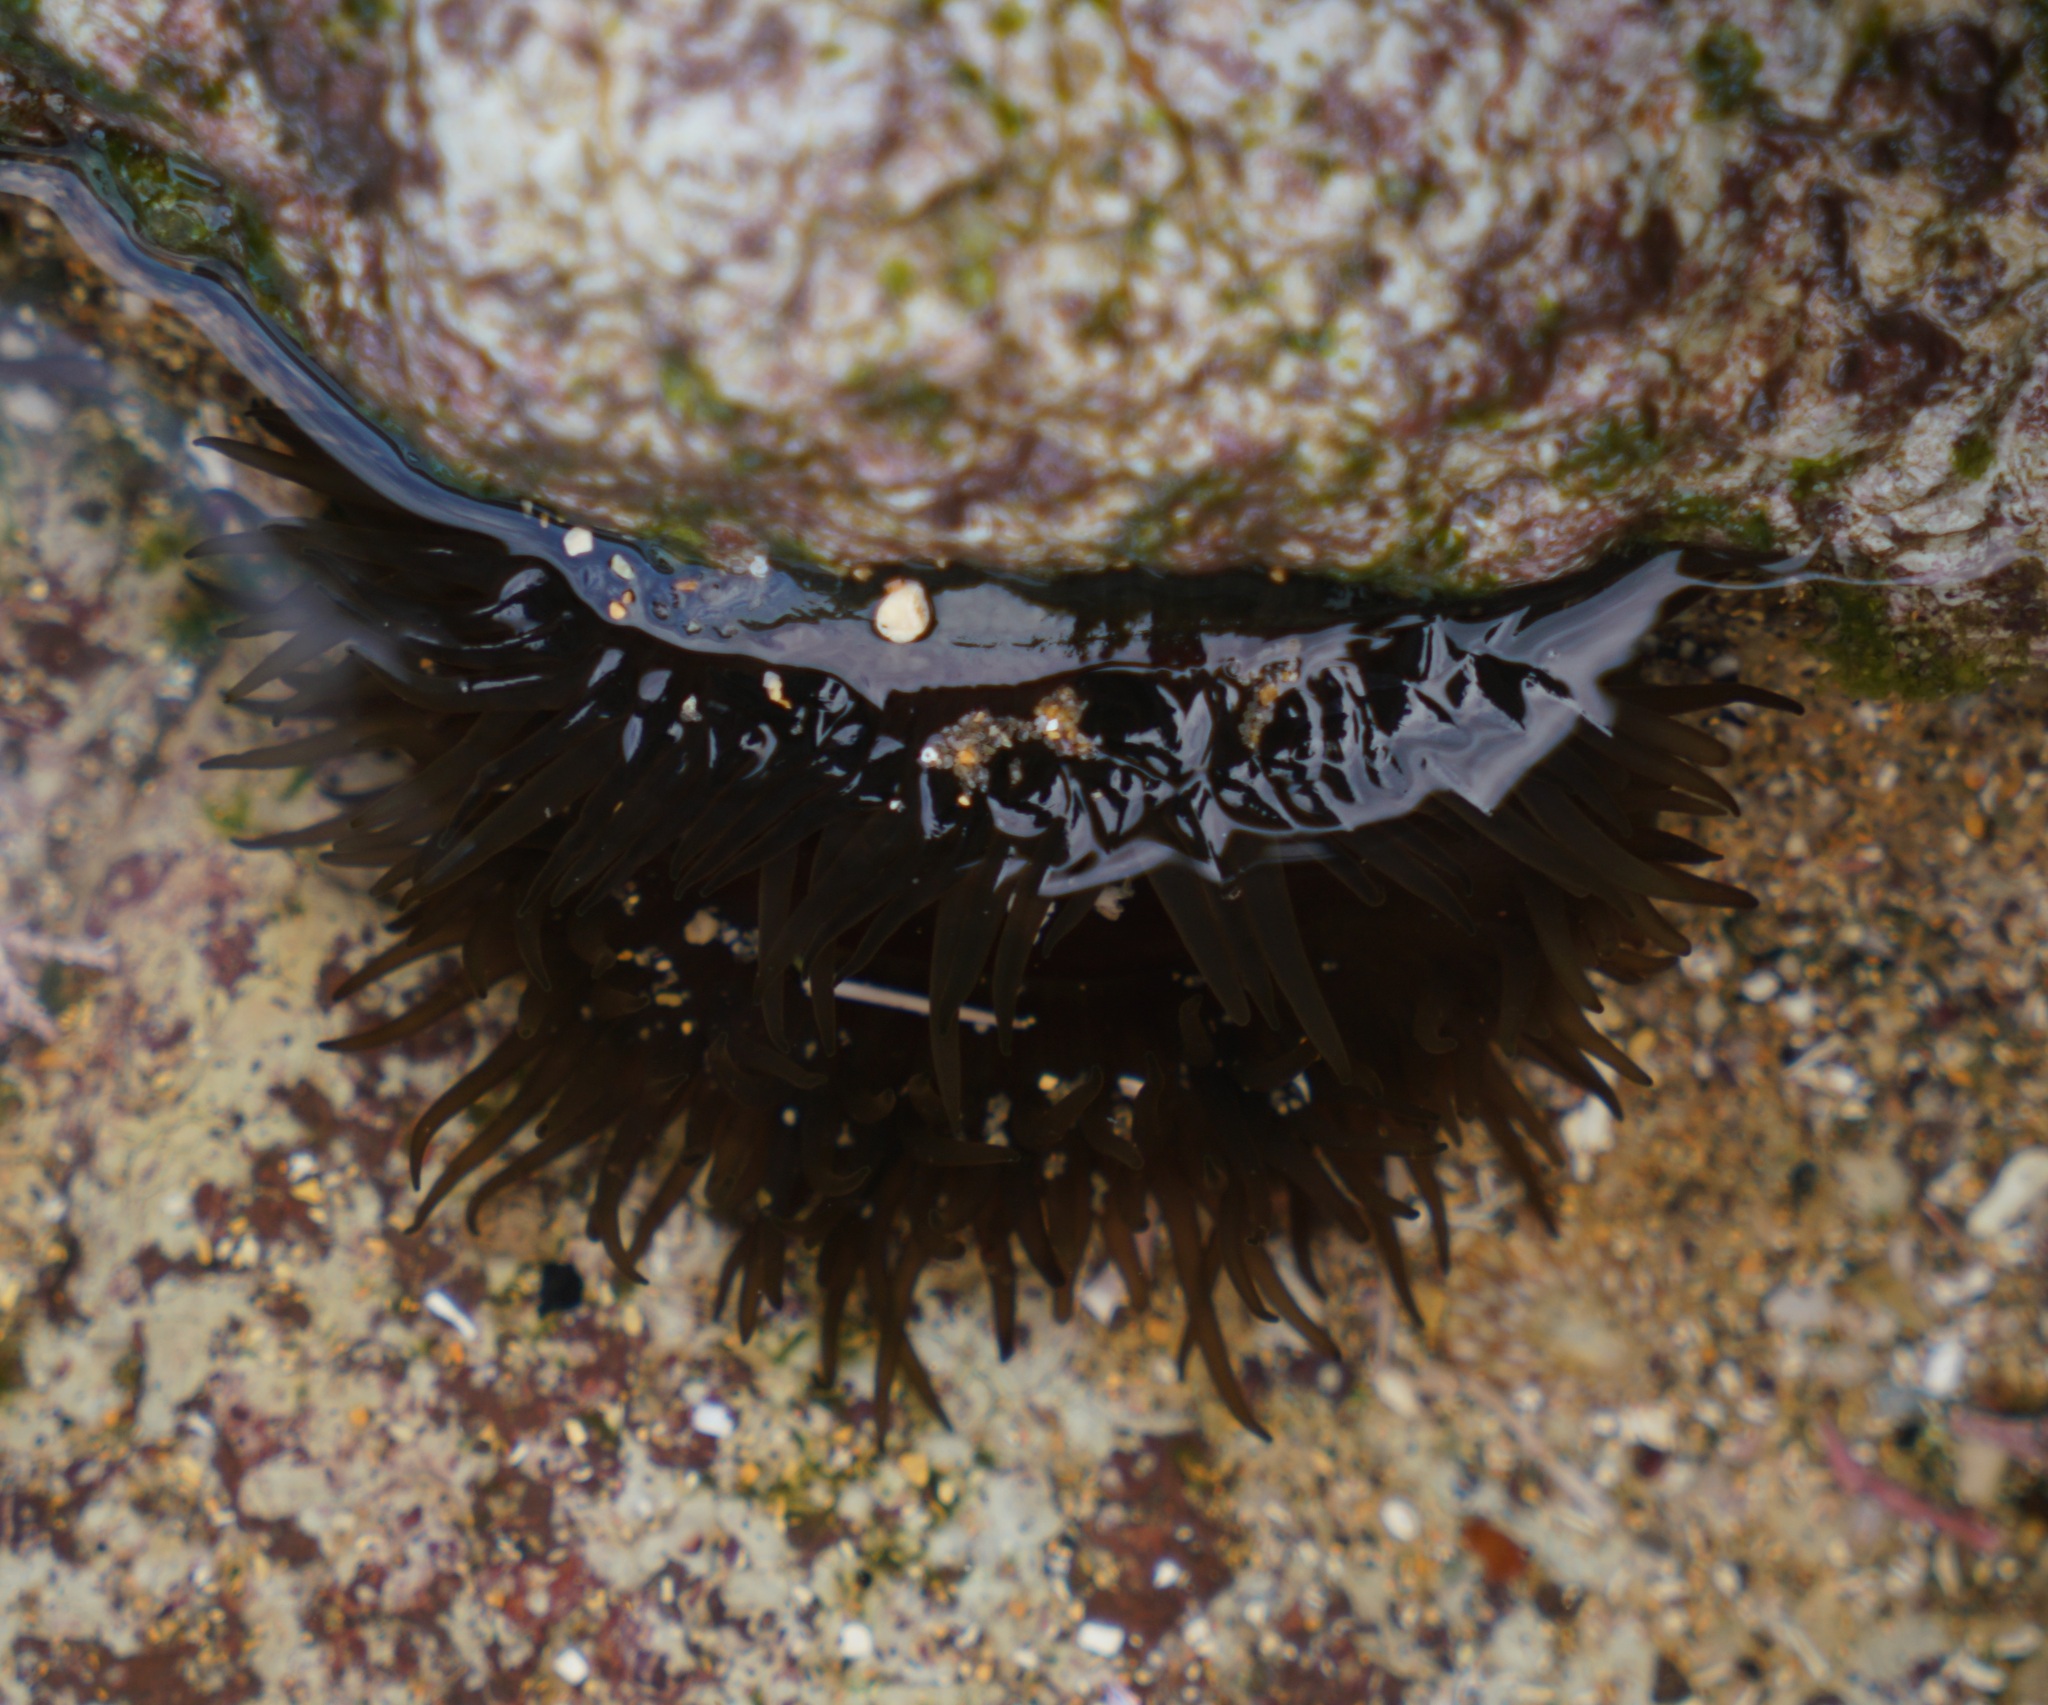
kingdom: Animalia
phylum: Cnidaria
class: Anthozoa
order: Actiniaria
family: Actiniidae
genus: Aulactinia
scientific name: Aulactinia veratra
